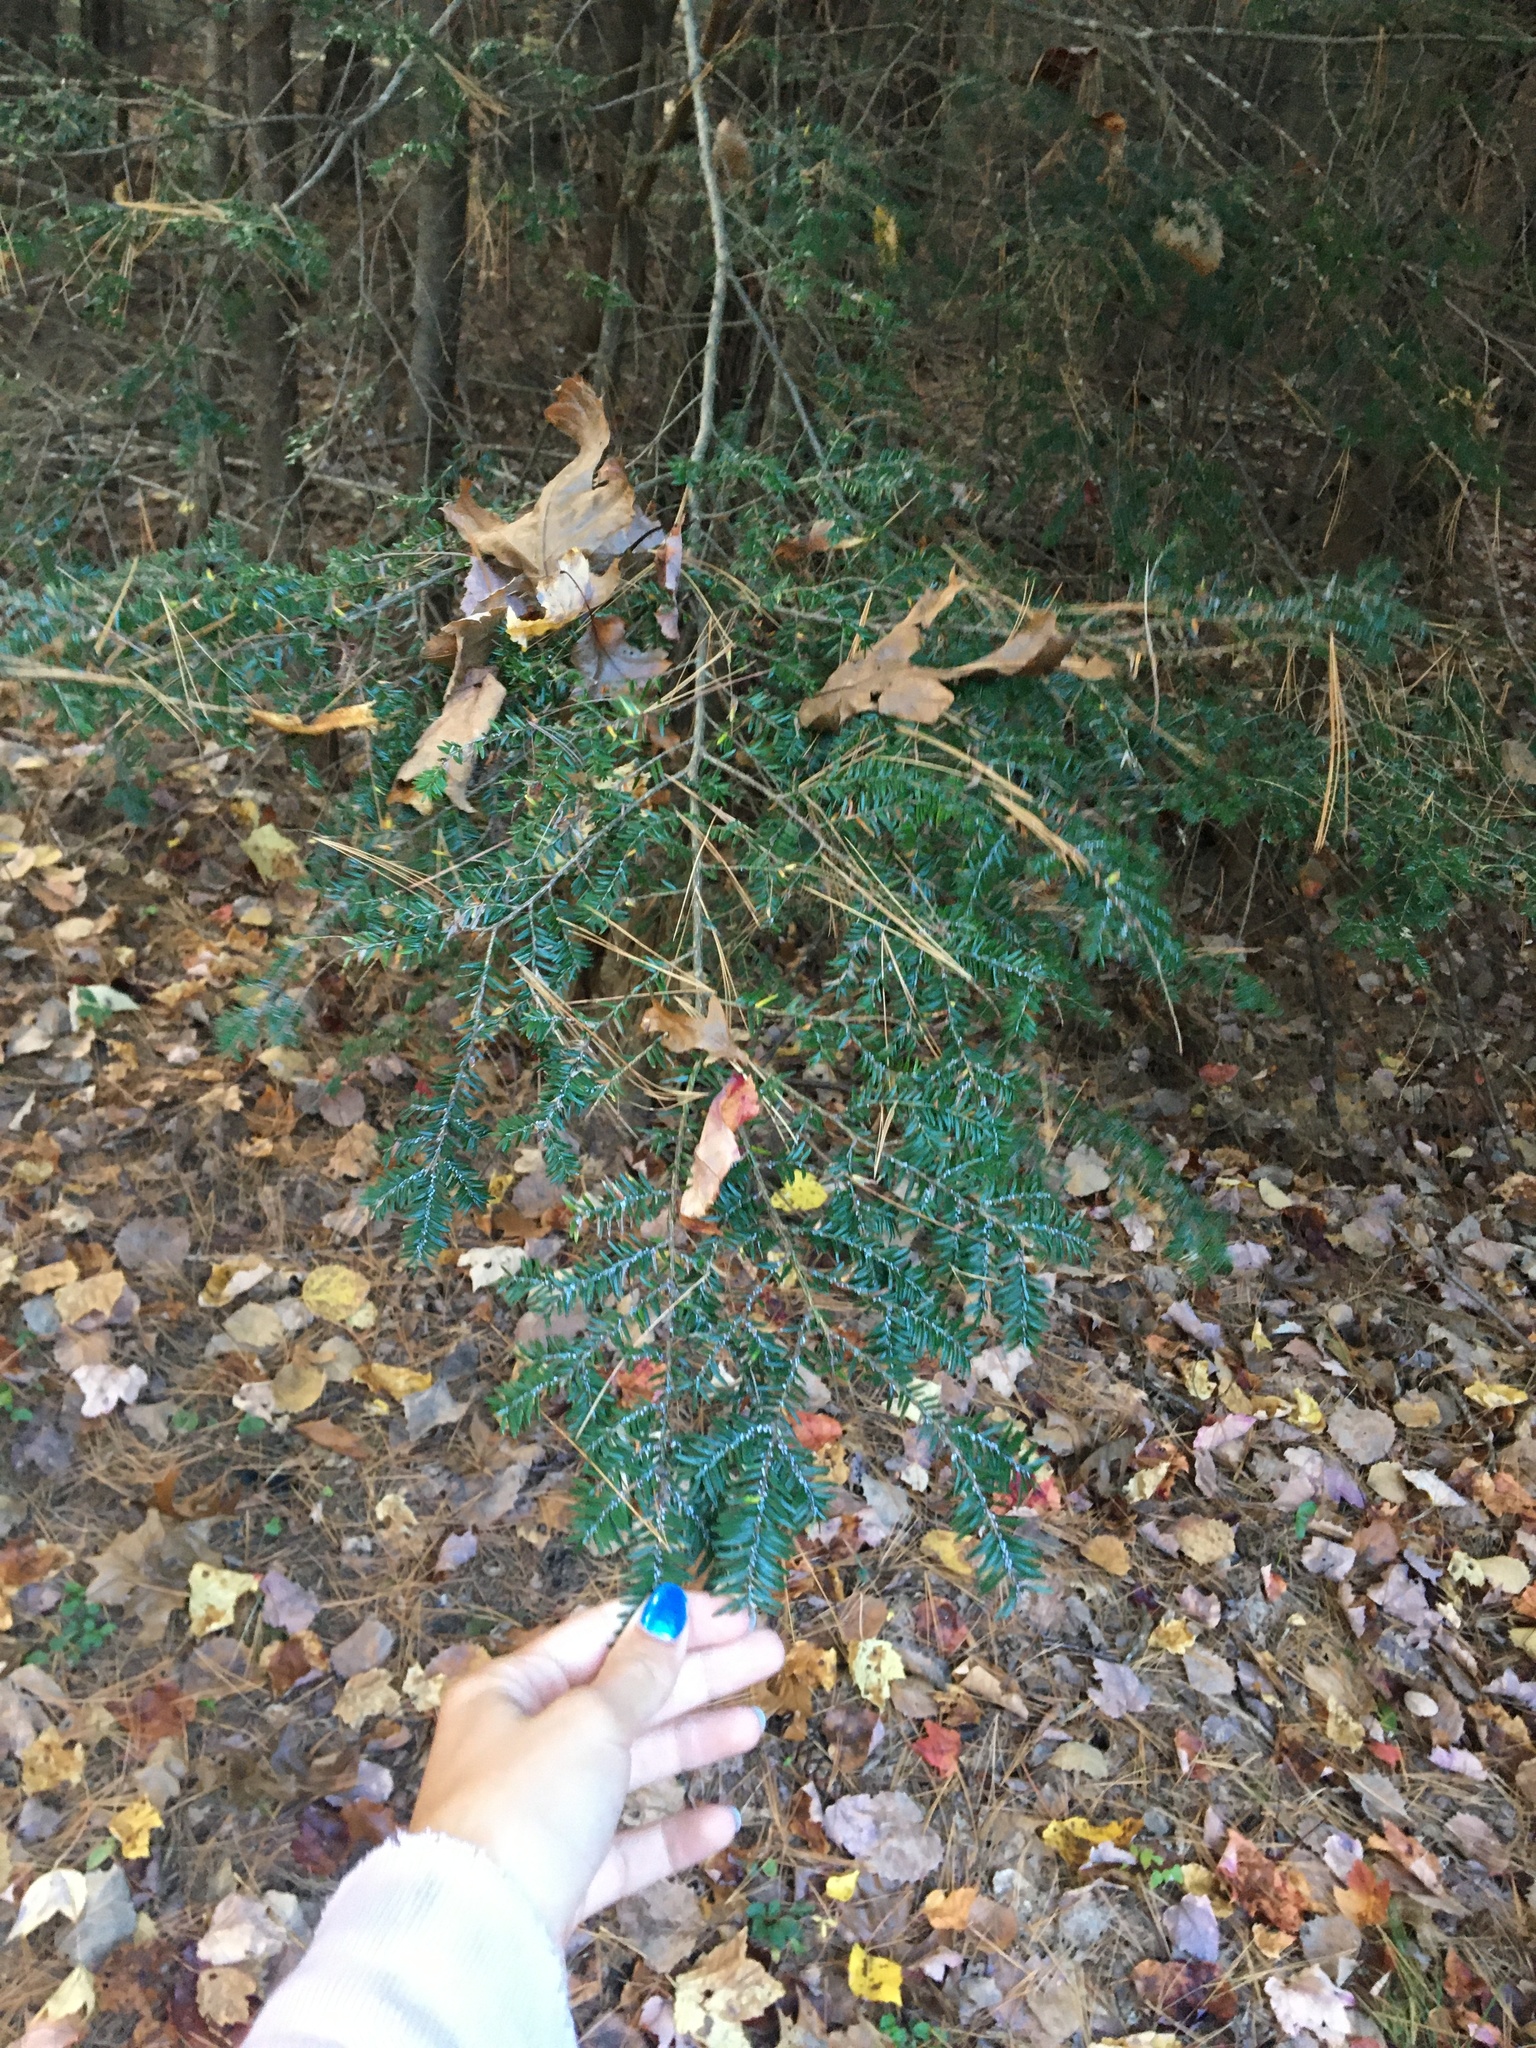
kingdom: Plantae
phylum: Tracheophyta
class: Pinopsida
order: Pinales
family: Pinaceae
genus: Tsuga
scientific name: Tsuga canadensis
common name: Eastern hemlock
